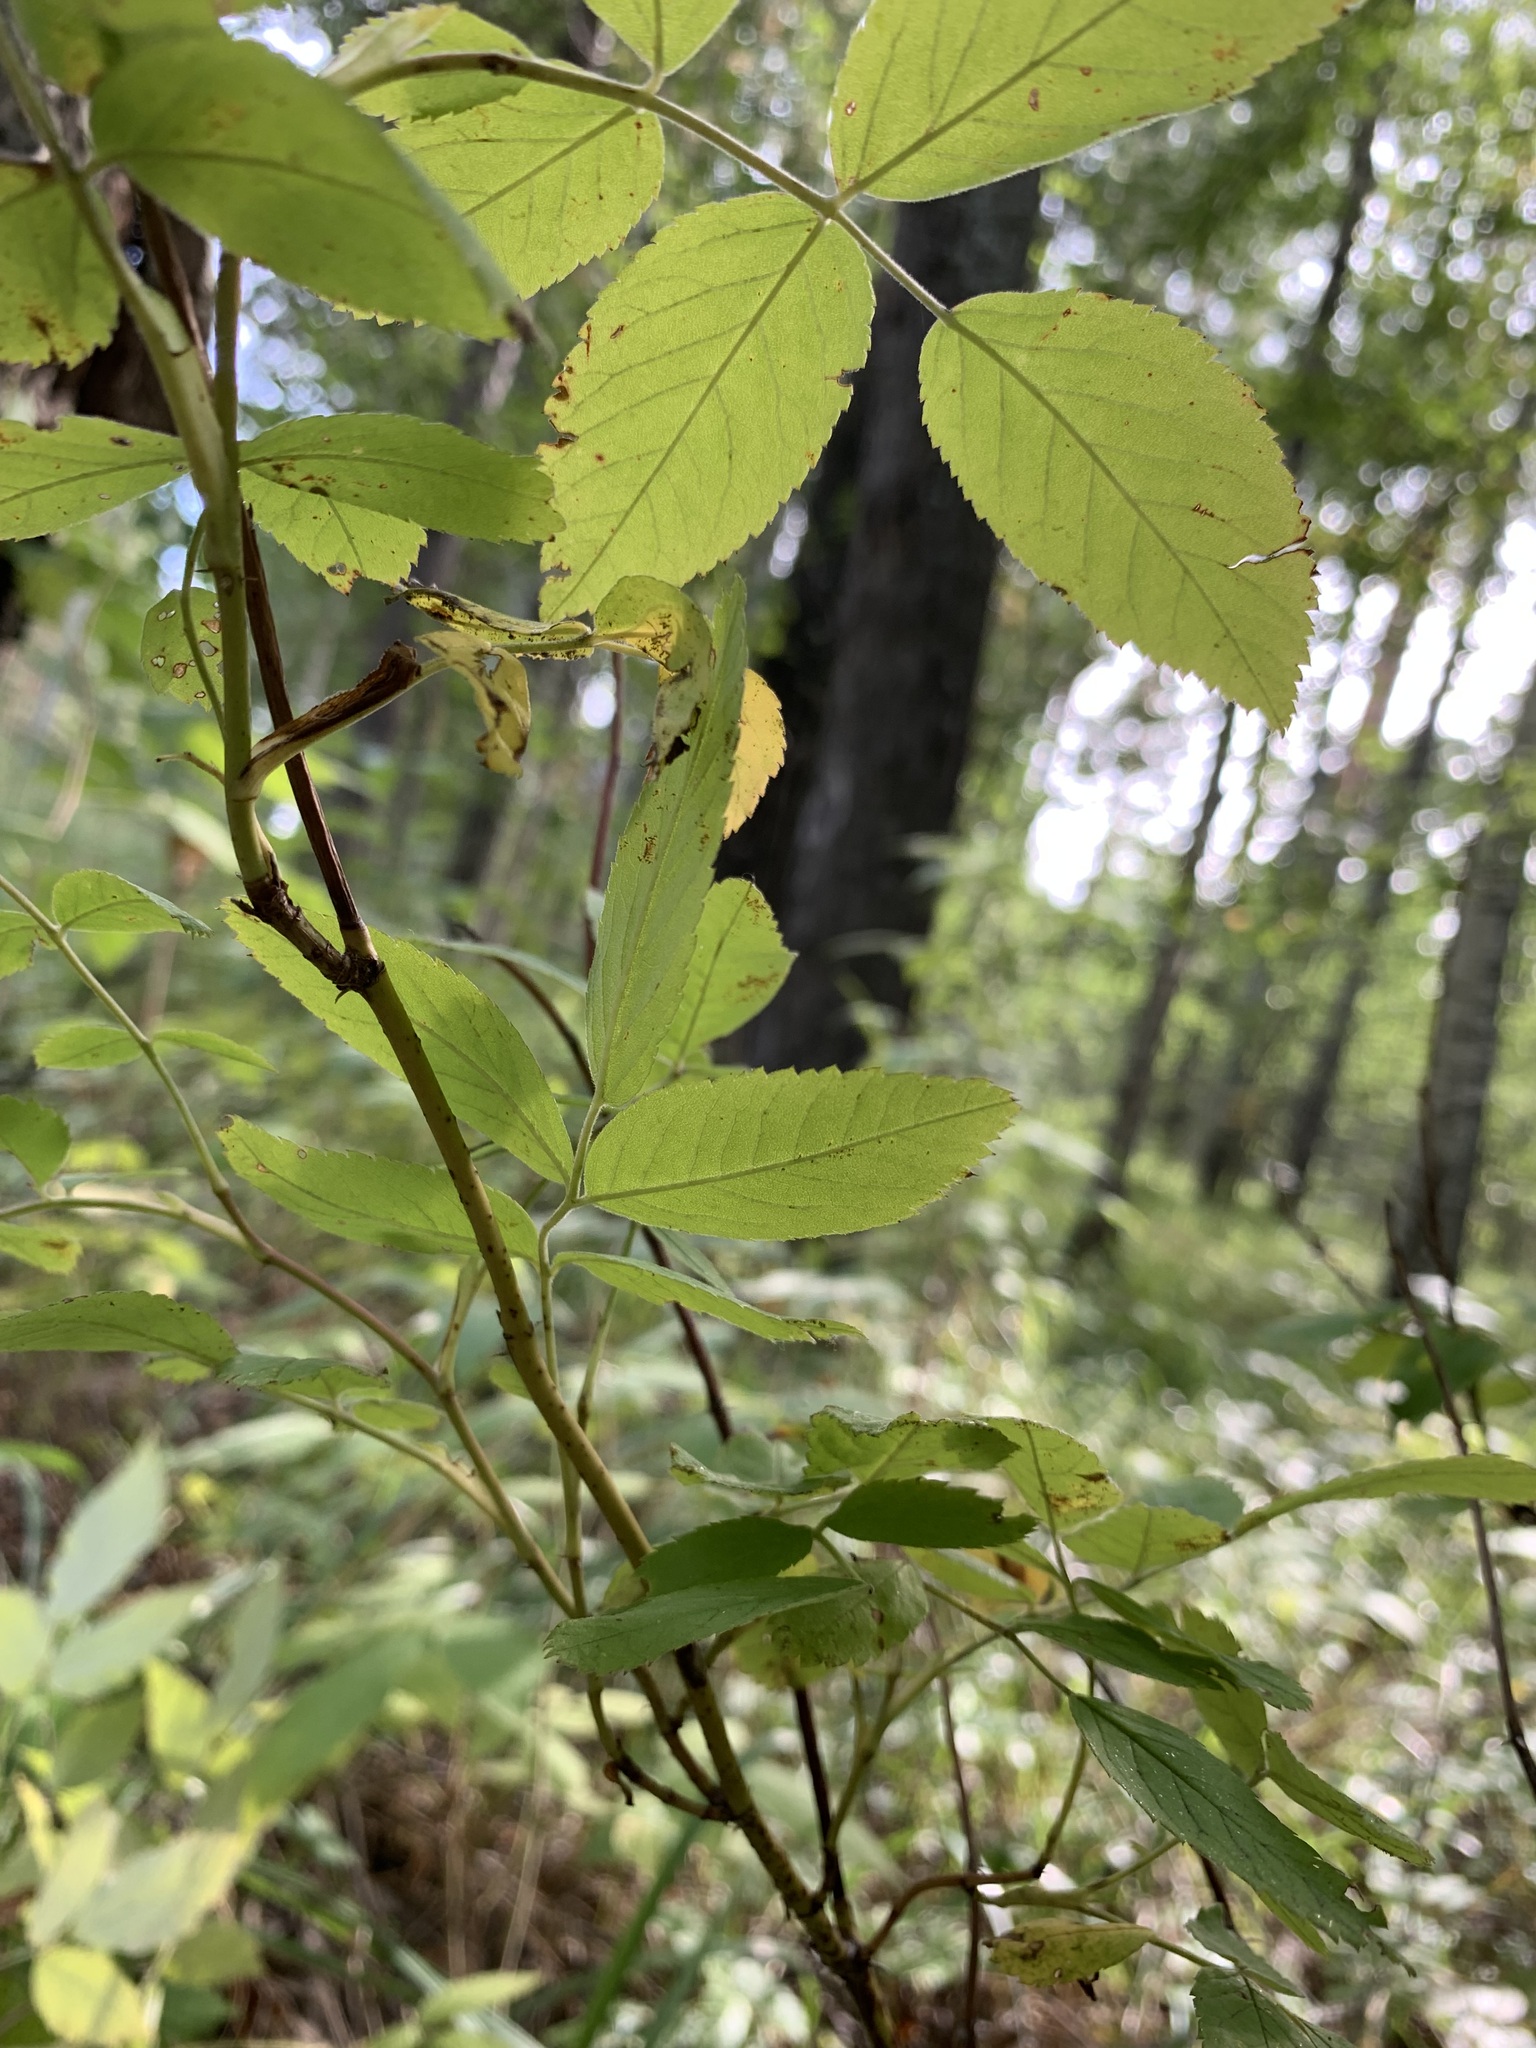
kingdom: Plantae
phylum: Tracheophyta
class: Magnoliopsida
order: Rosales
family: Rosaceae
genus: Rosa
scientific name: Rosa majalis
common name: Cinnamon rose
